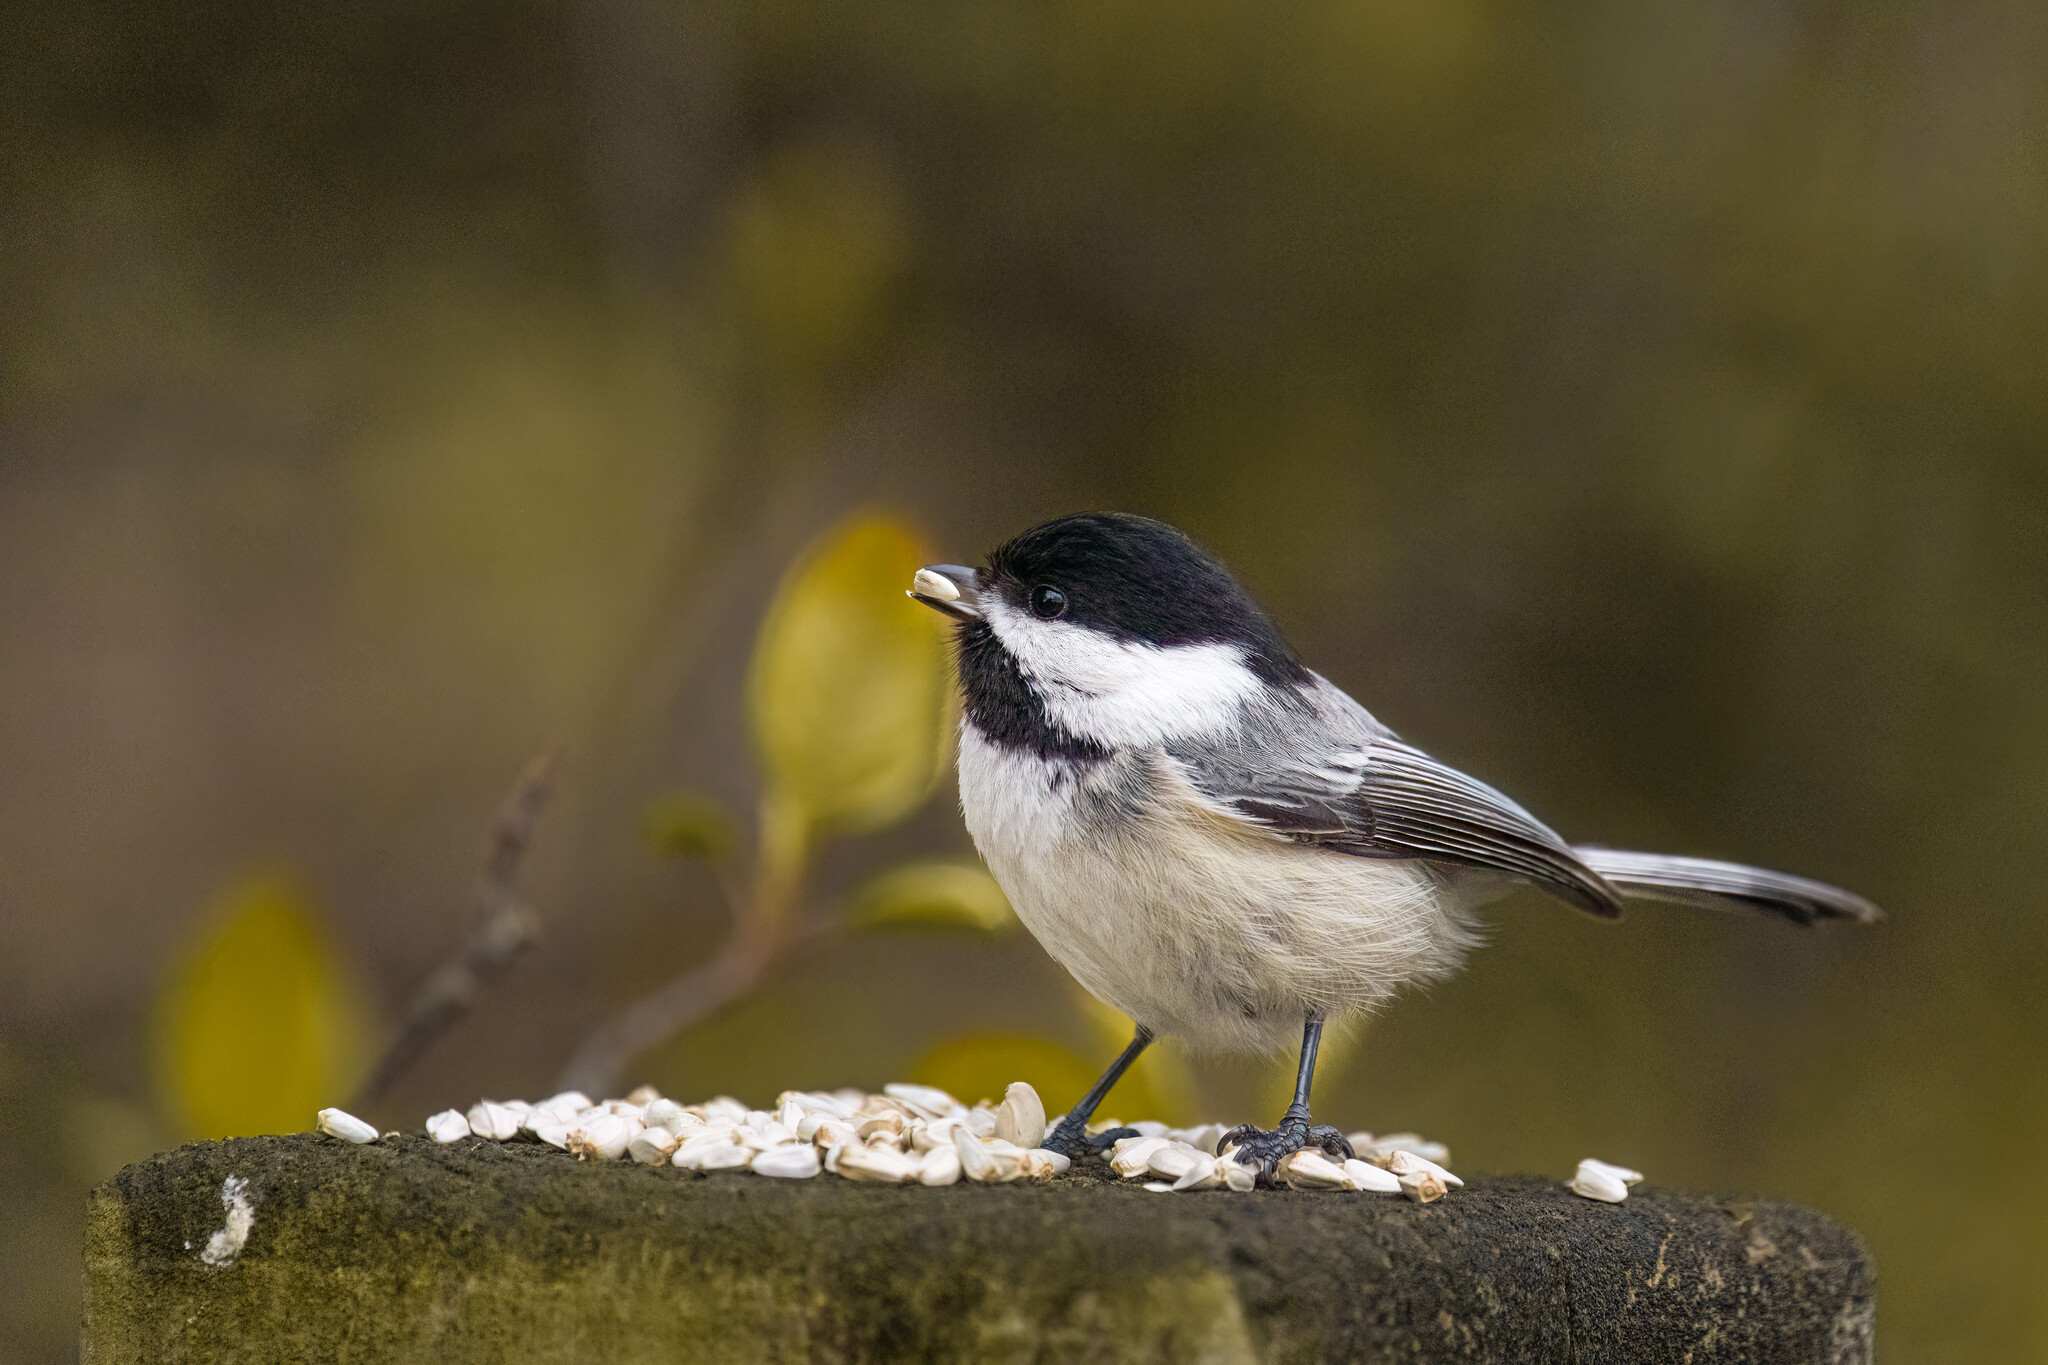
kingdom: Animalia
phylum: Chordata
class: Aves
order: Passeriformes
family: Paridae
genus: Poecile
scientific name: Poecile atricapillus
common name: Black-capped chickadee
